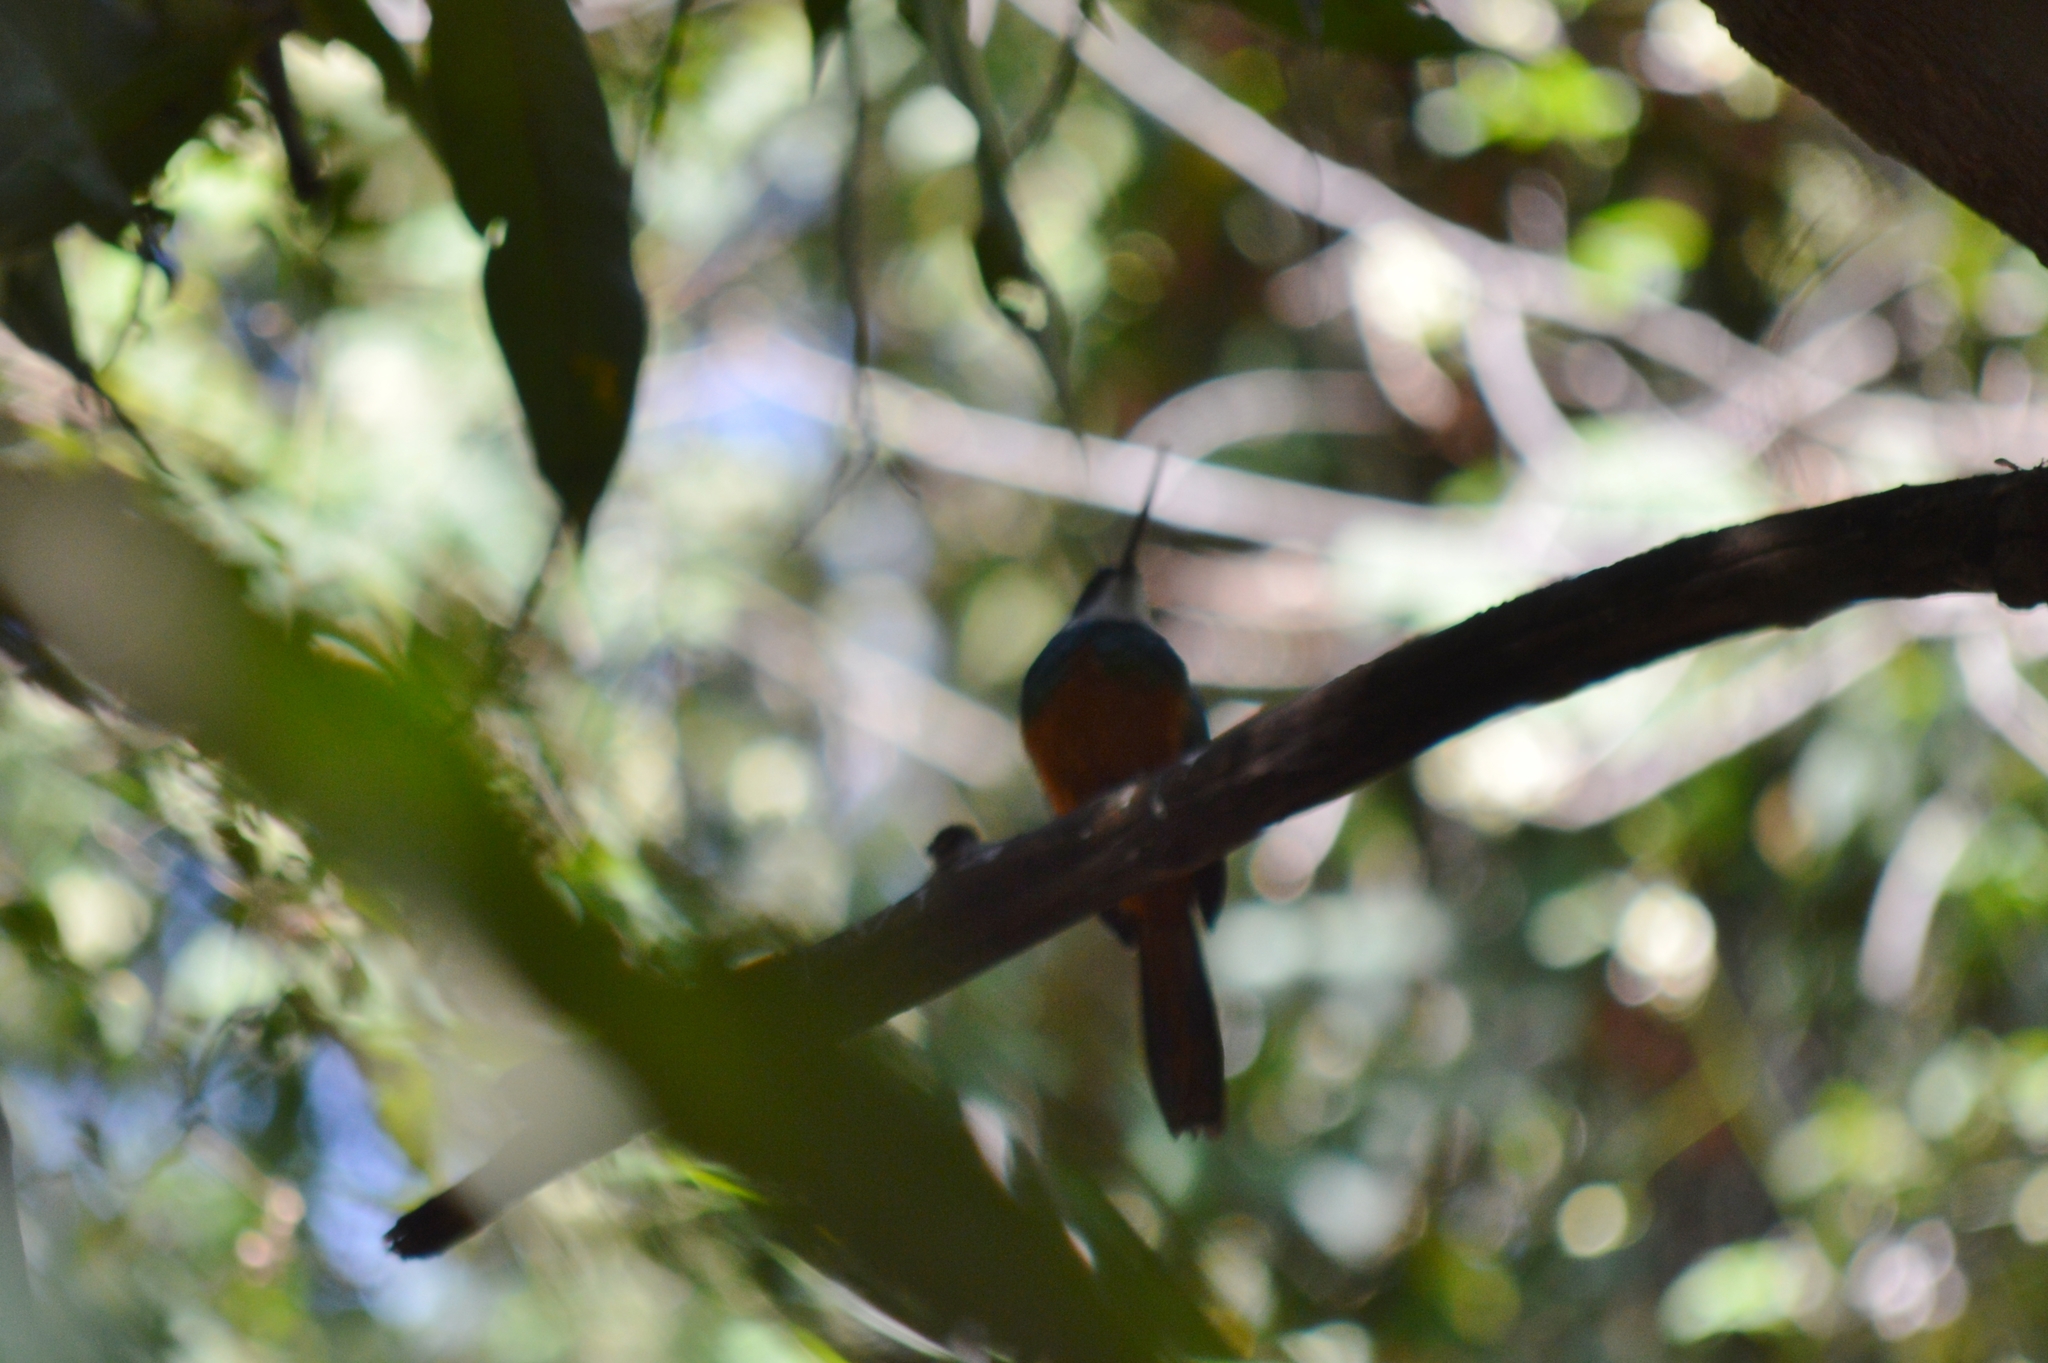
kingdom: Animalia
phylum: Chordata
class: Aves
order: Piciformes
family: Galbulidae
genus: Galbula
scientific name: Galbula ruficauda
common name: Rufous-tailed jacamar
